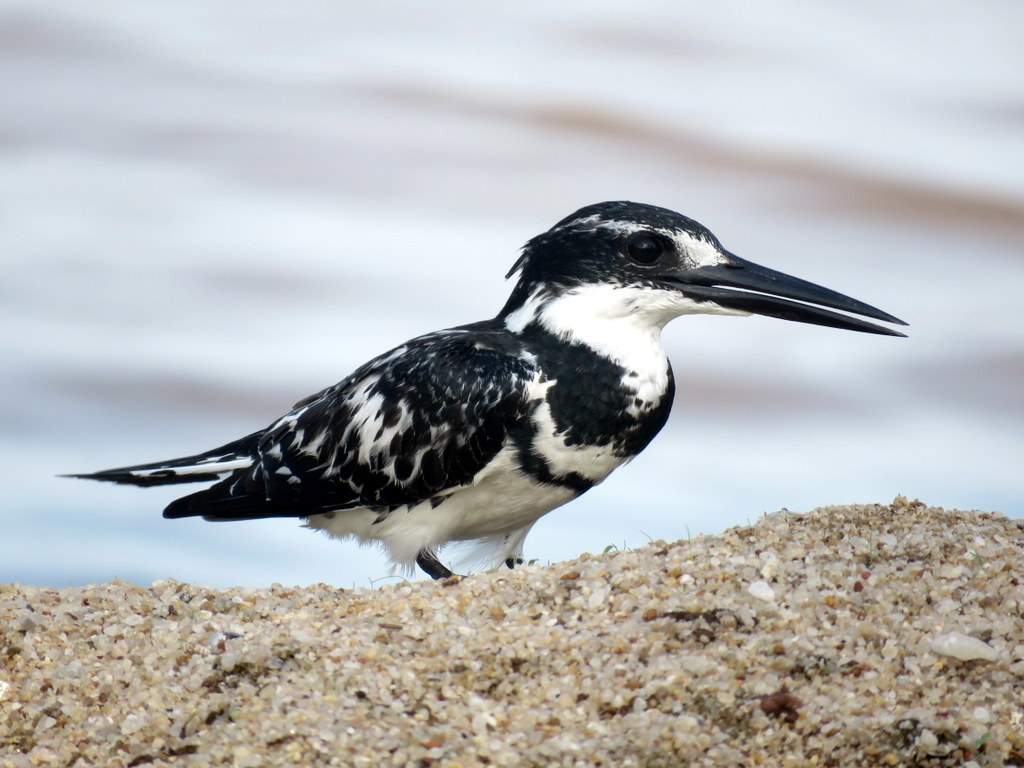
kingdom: Animalia
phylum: Chordata
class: Aves
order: Coraciiformes
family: Alcedinidae
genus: Ceryle
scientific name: Ceryle rudis
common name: Pied kingfisher
